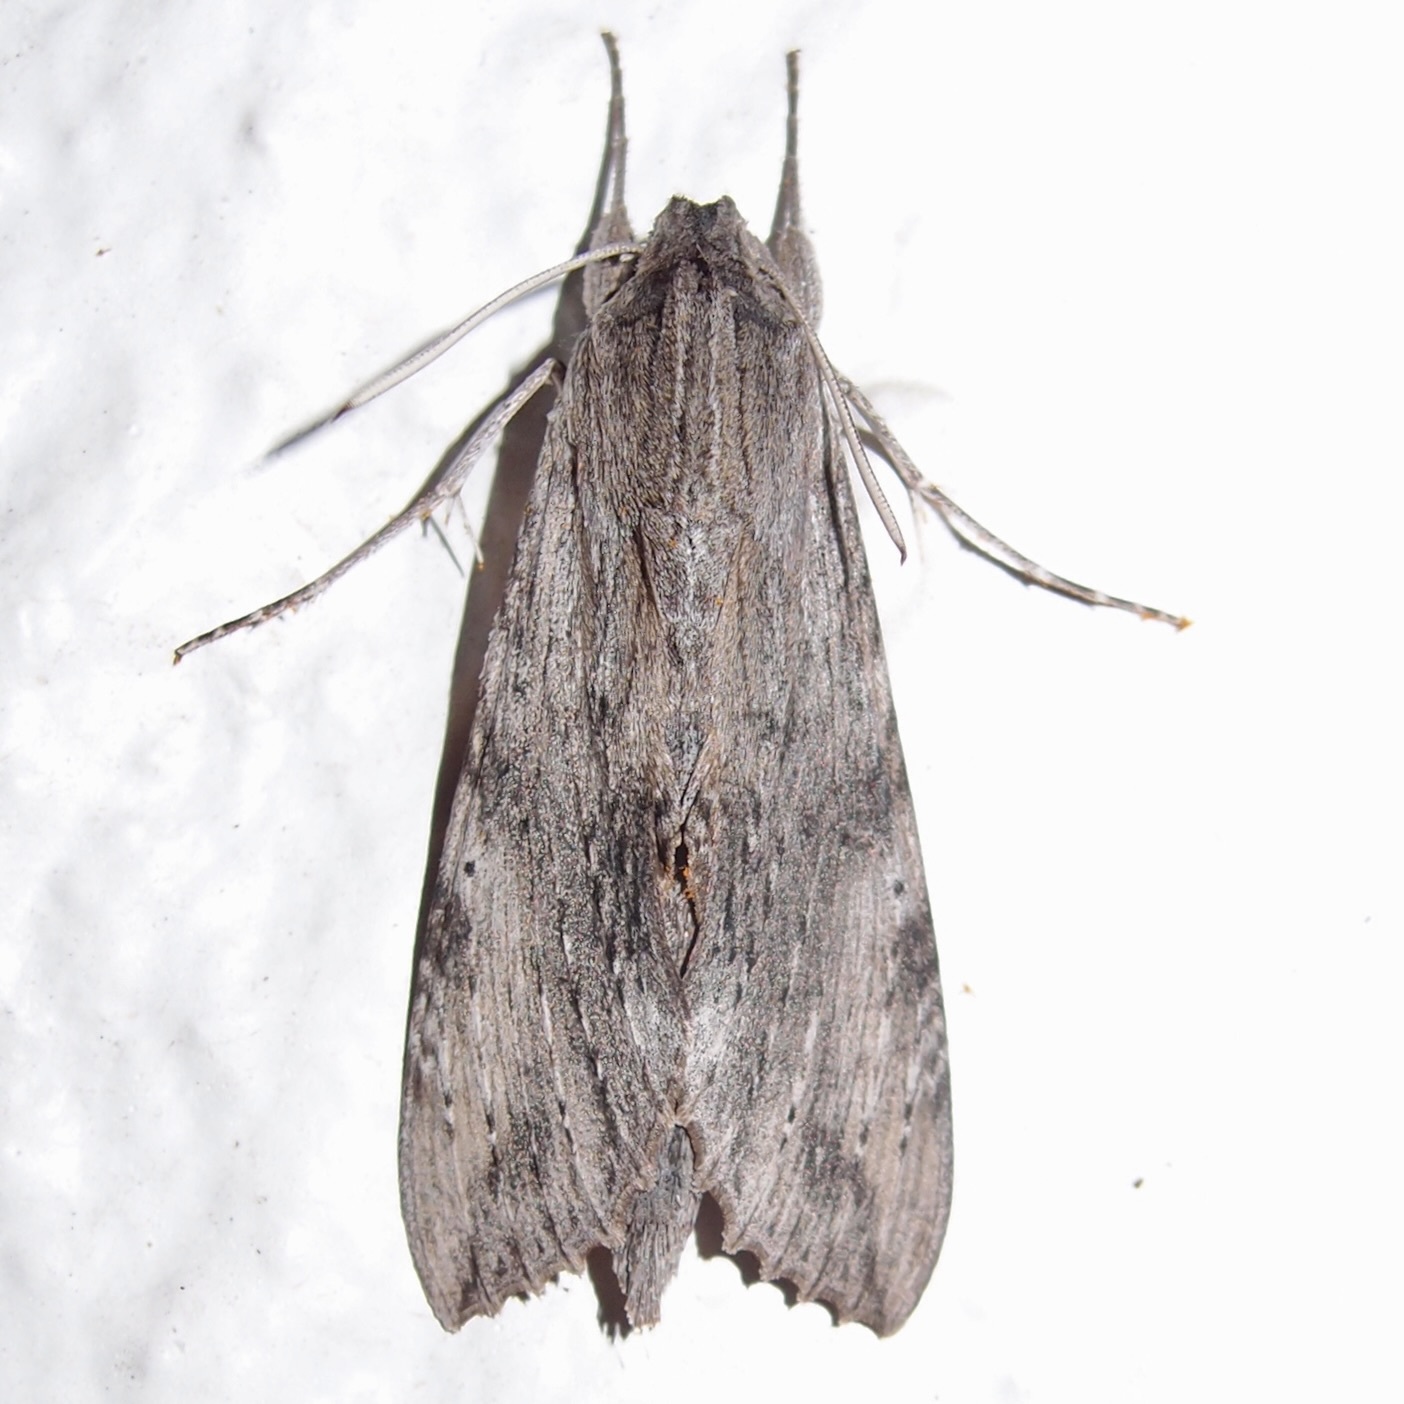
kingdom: Animalia
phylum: Arthropoda
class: Insecta
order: Lepidoptera
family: Sphingidae
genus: Erinnyis
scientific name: Erinnyis obscura
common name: Obscure sphinx
